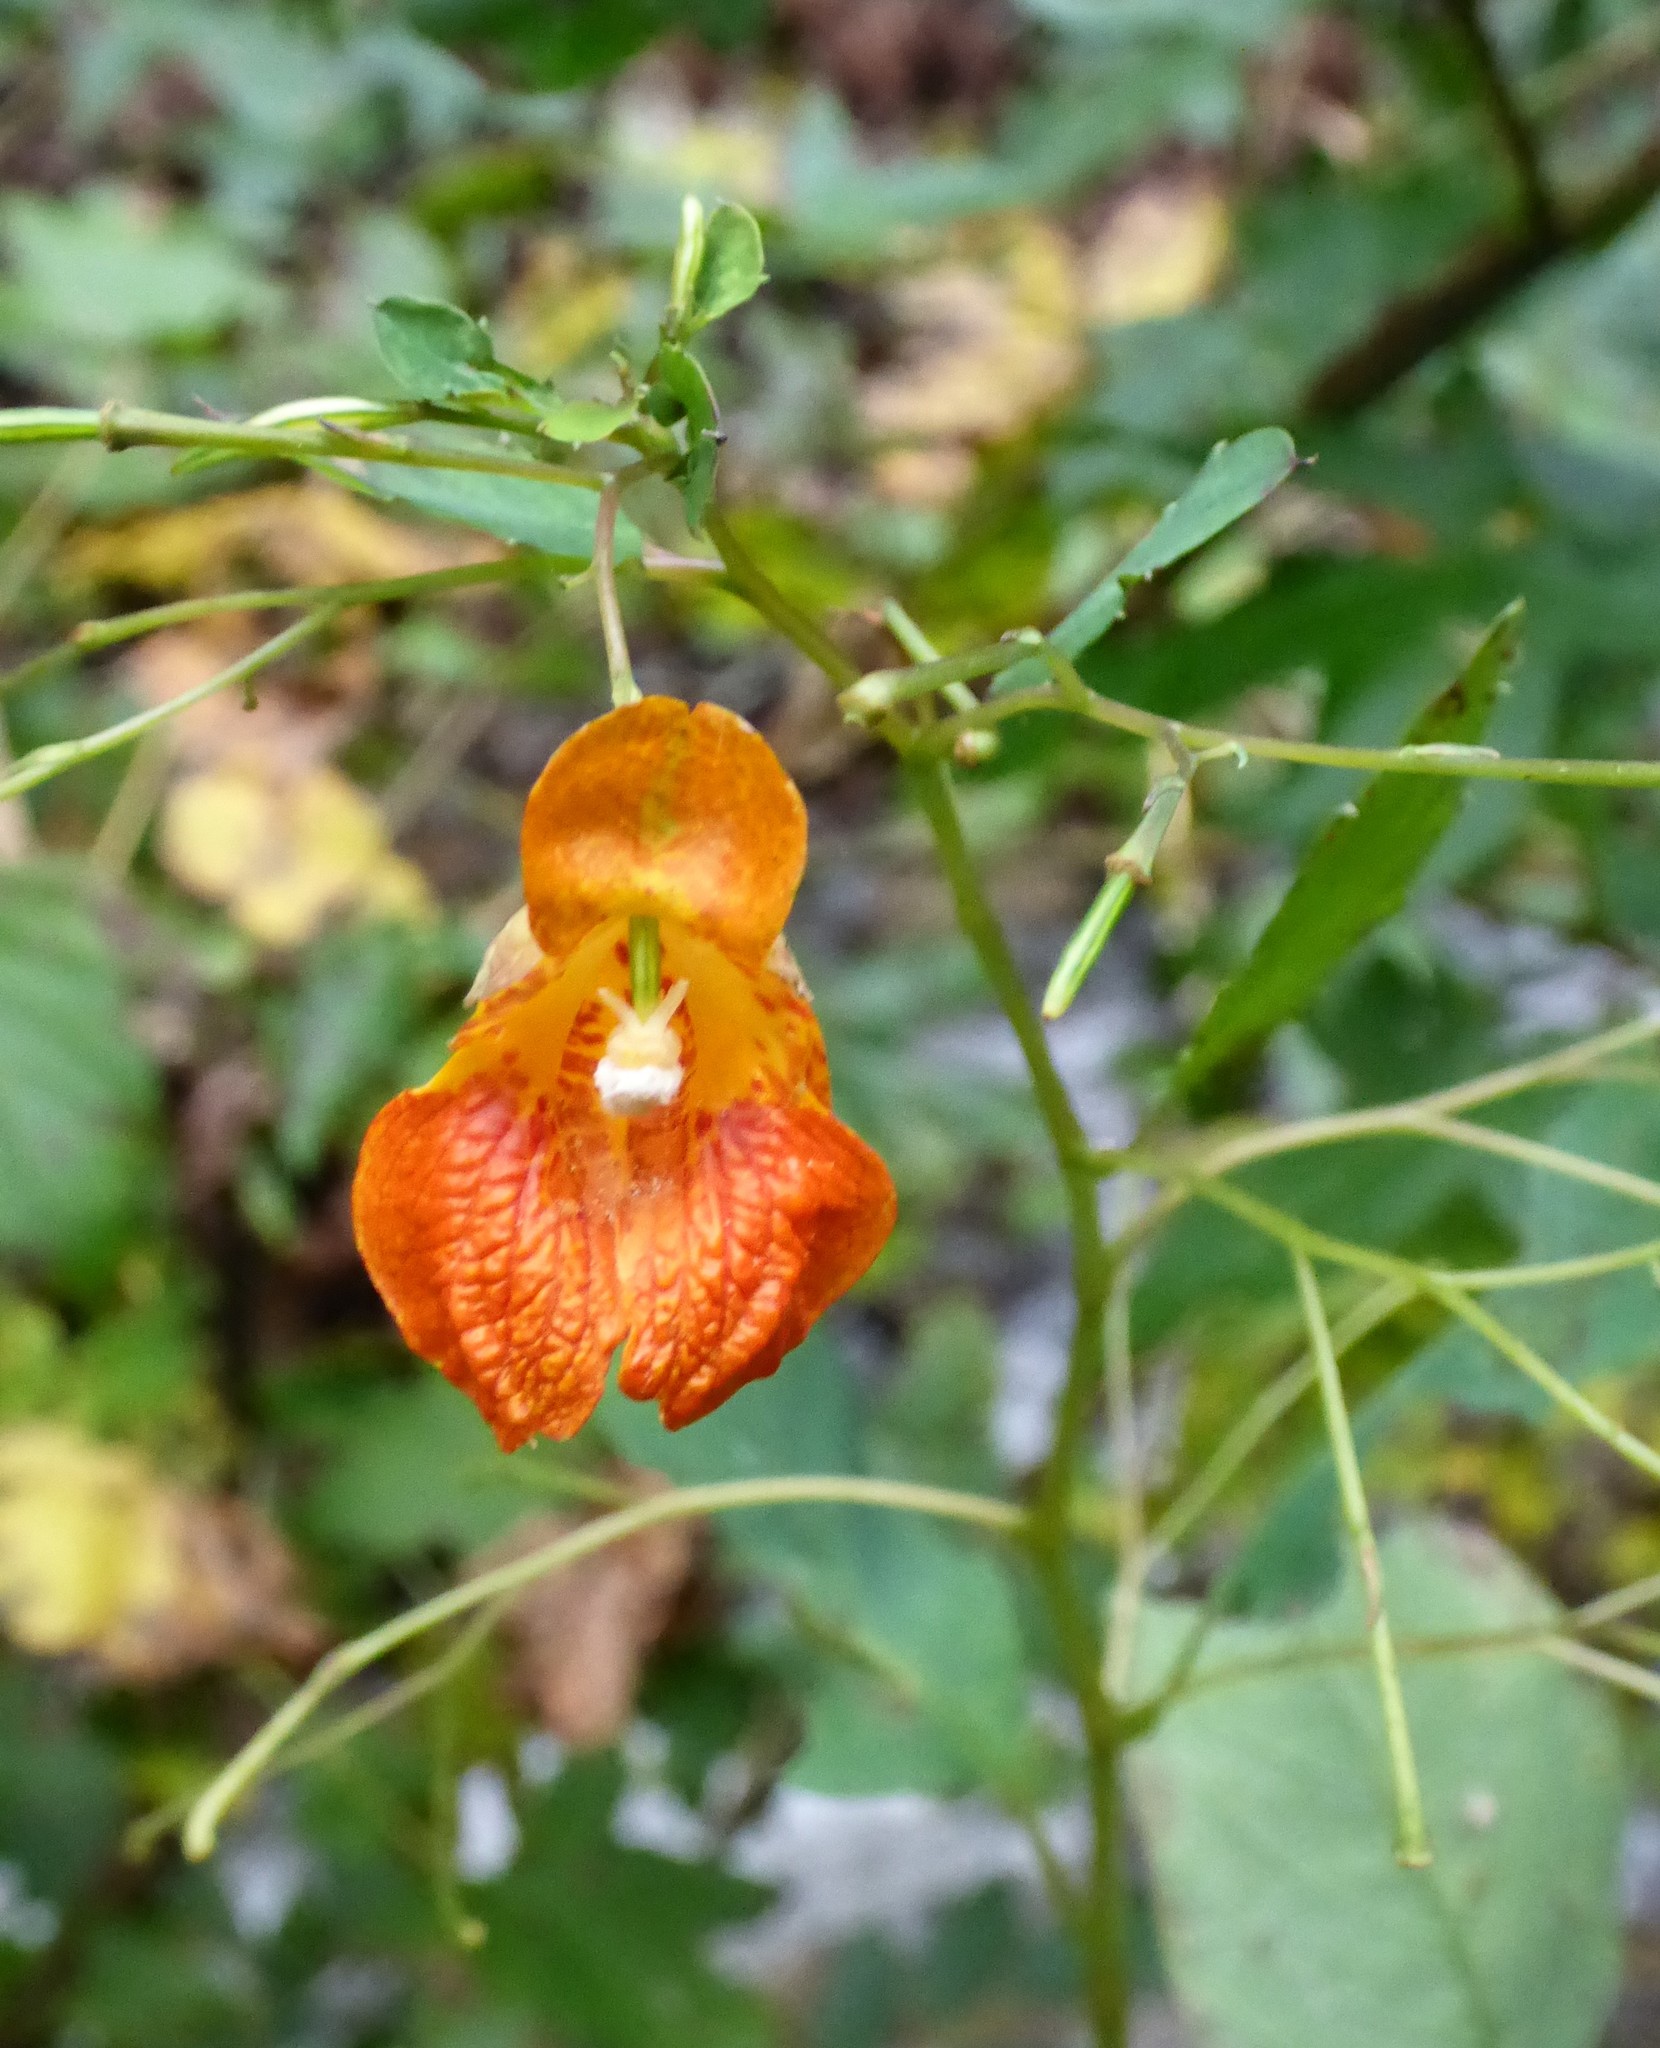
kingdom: Plantae
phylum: Tracheophyta
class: Magnoliopsida
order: Ericales
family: Balsaminaceae
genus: Impatiens
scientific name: Impatiens capensis
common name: Orange balsam
